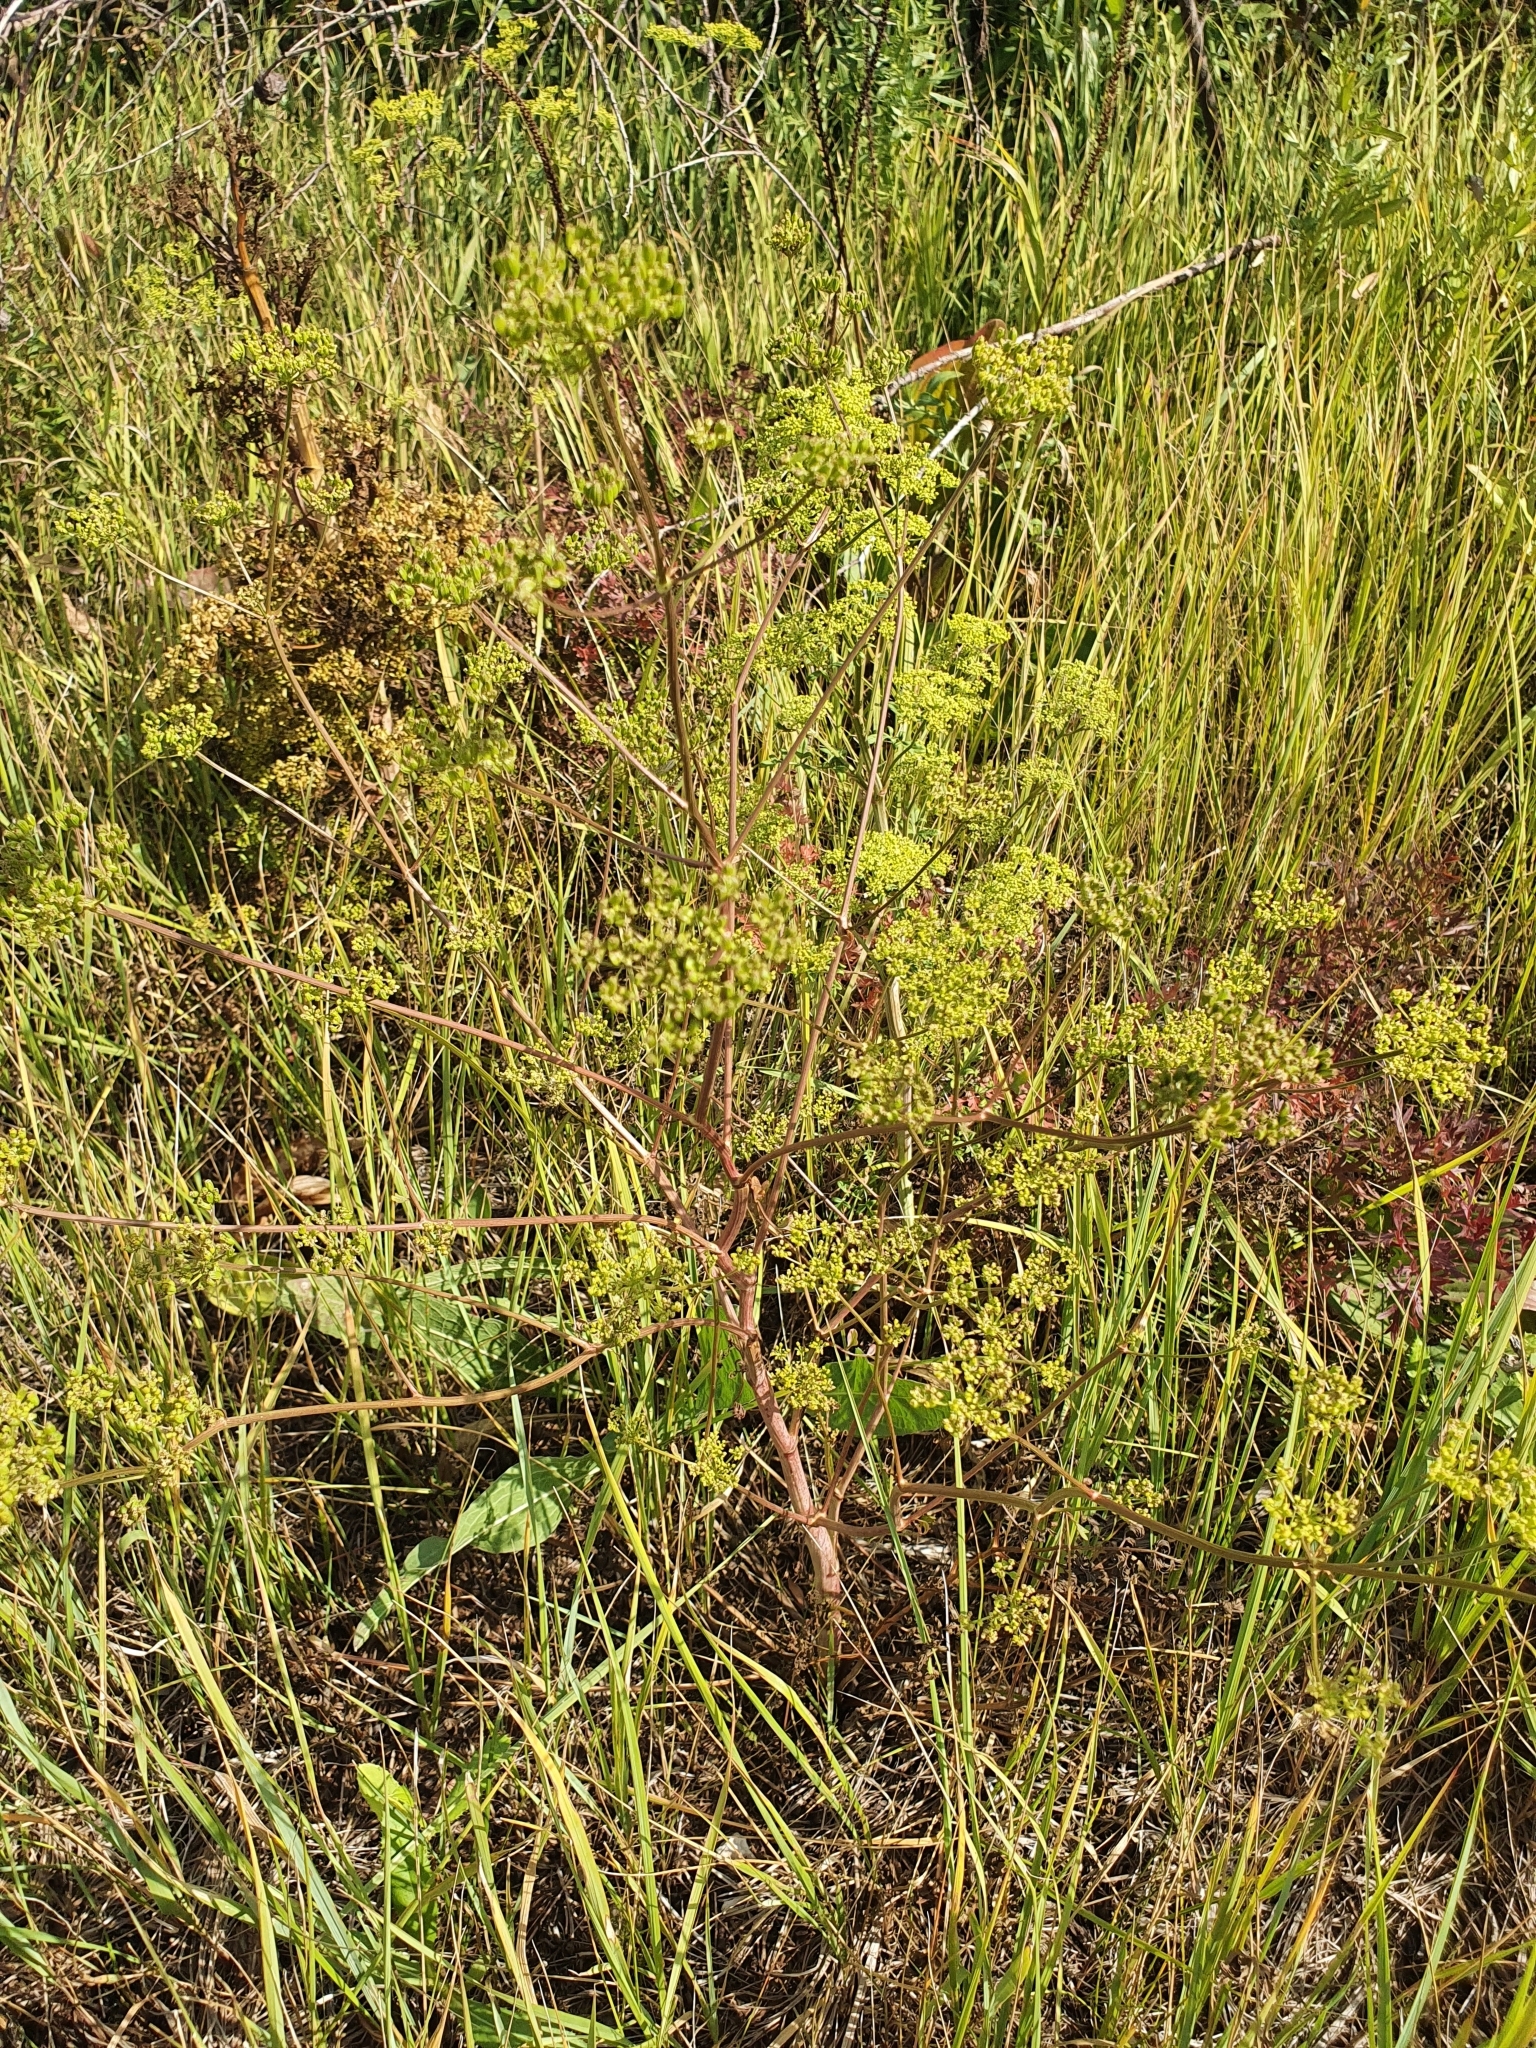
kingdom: Plantae
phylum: Tracheophyta
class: Magnoliopsida
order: Apiales
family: Apiaceae
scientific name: Apiaceae
